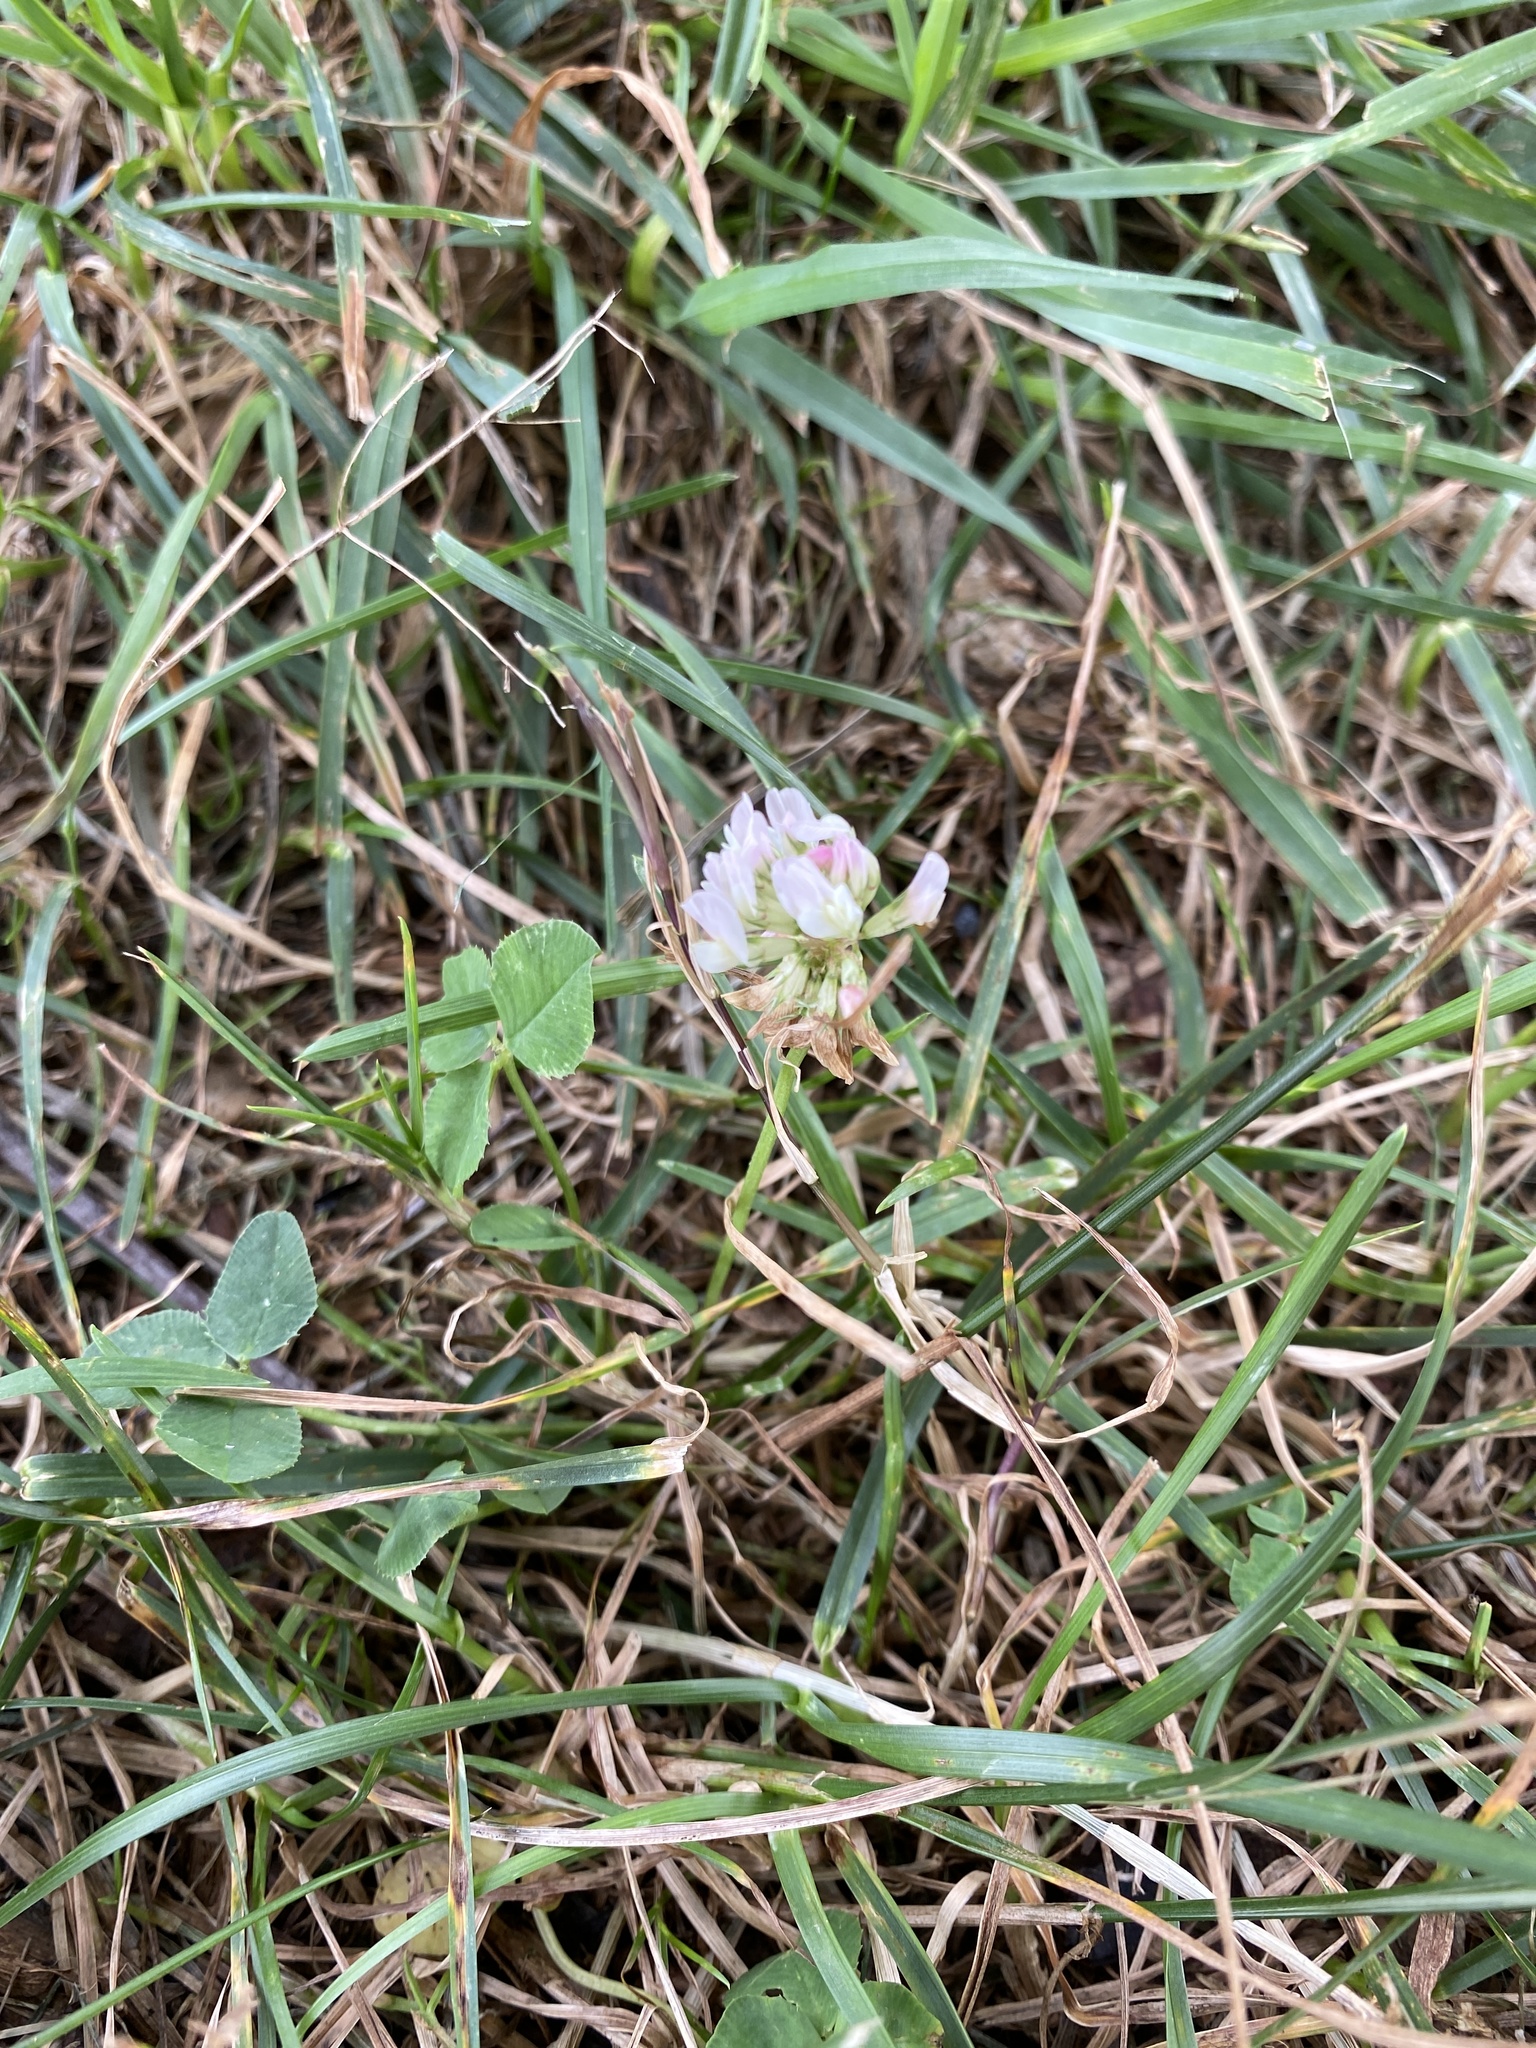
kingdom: Plantae
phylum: Tracheophyta
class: Magnoliopsida
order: Fabales
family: Fabaceae
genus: Trifolium
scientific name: Trifolium repens
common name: White clover
